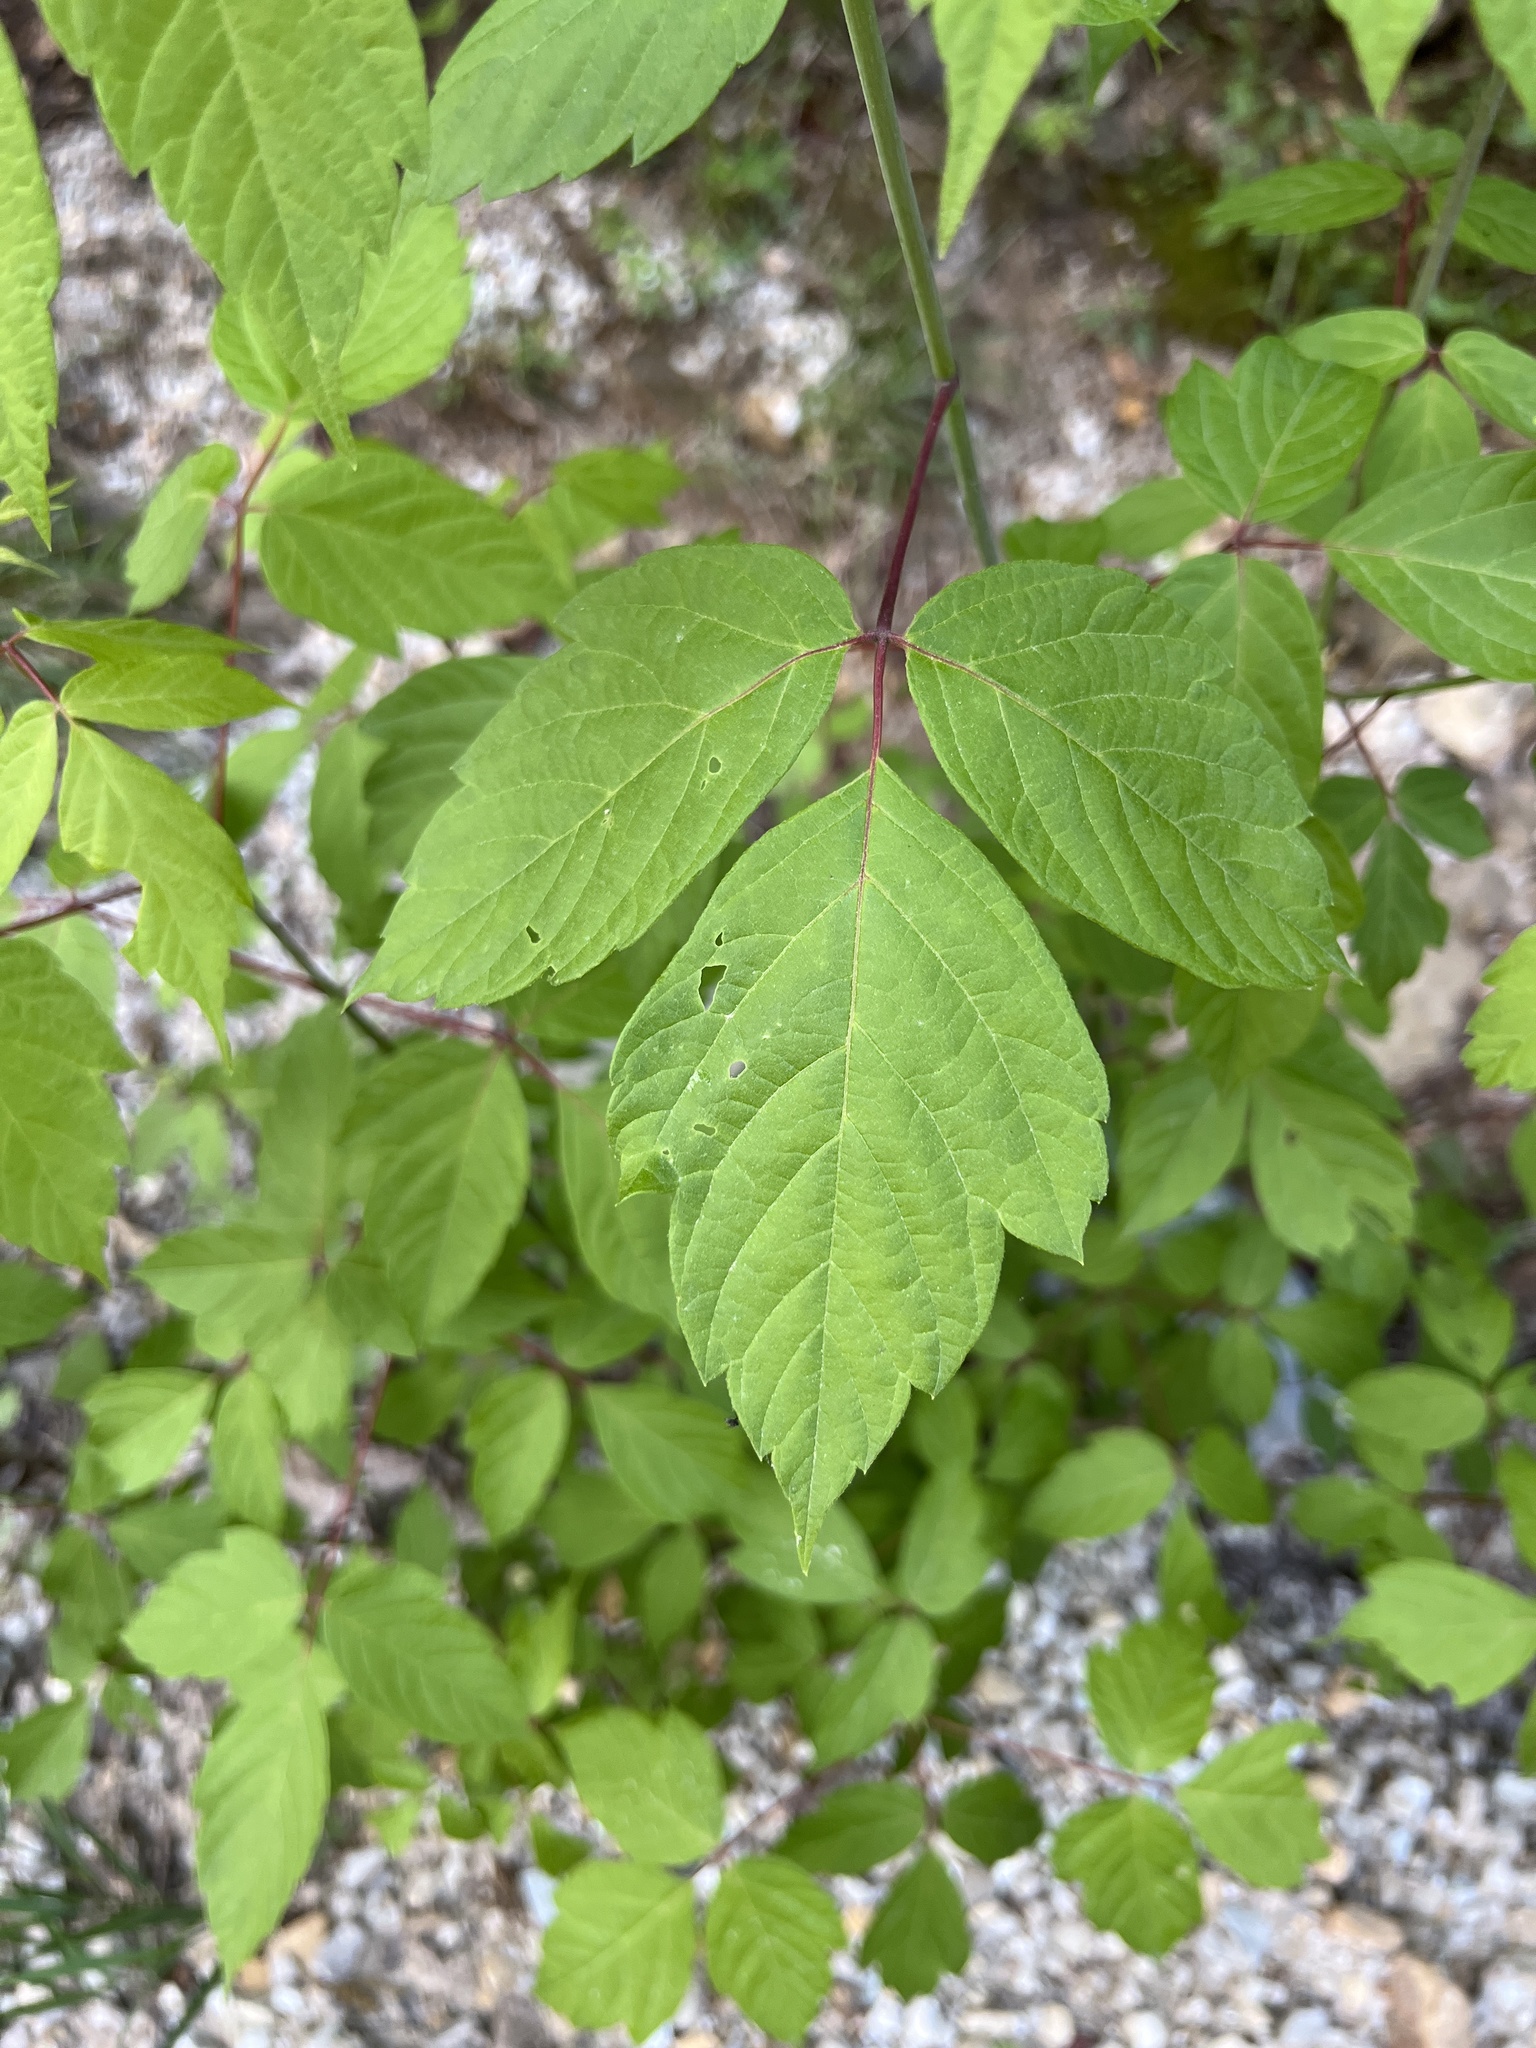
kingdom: Plantae
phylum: Tracheophyta
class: Magnoliopsida
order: Sapindales
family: Sapindaceae
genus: Acer
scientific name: Acer negundo
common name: Ashleaf maple
